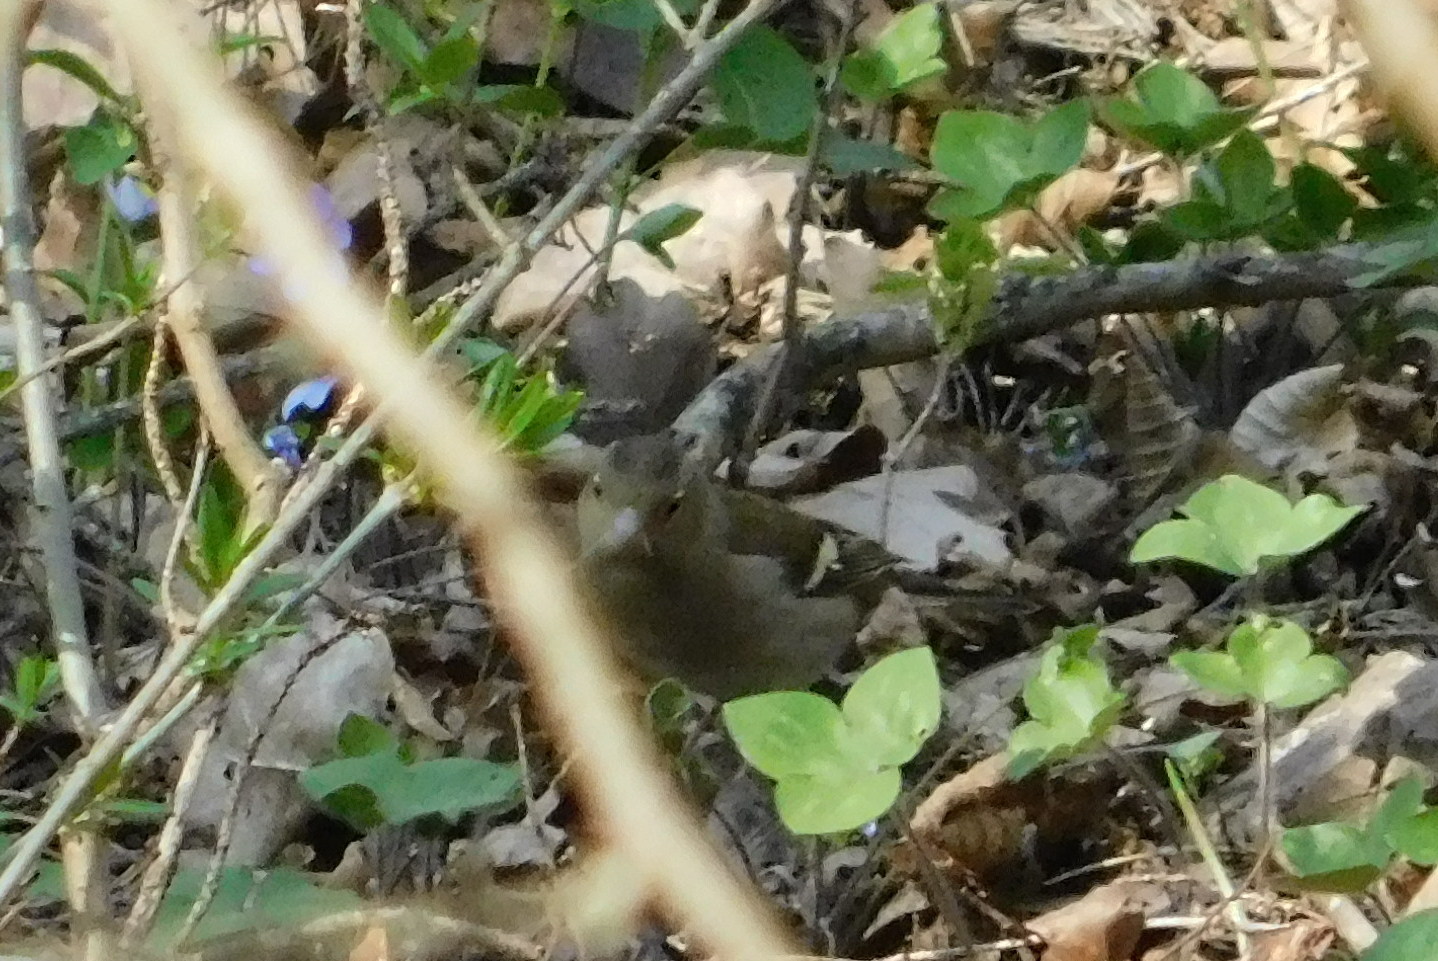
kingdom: Animalia
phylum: Chordata
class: Aves
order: Passeriformes
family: Fringillidae
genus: Fringilla
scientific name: Fringilla coelebs
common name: Common chaffinch
